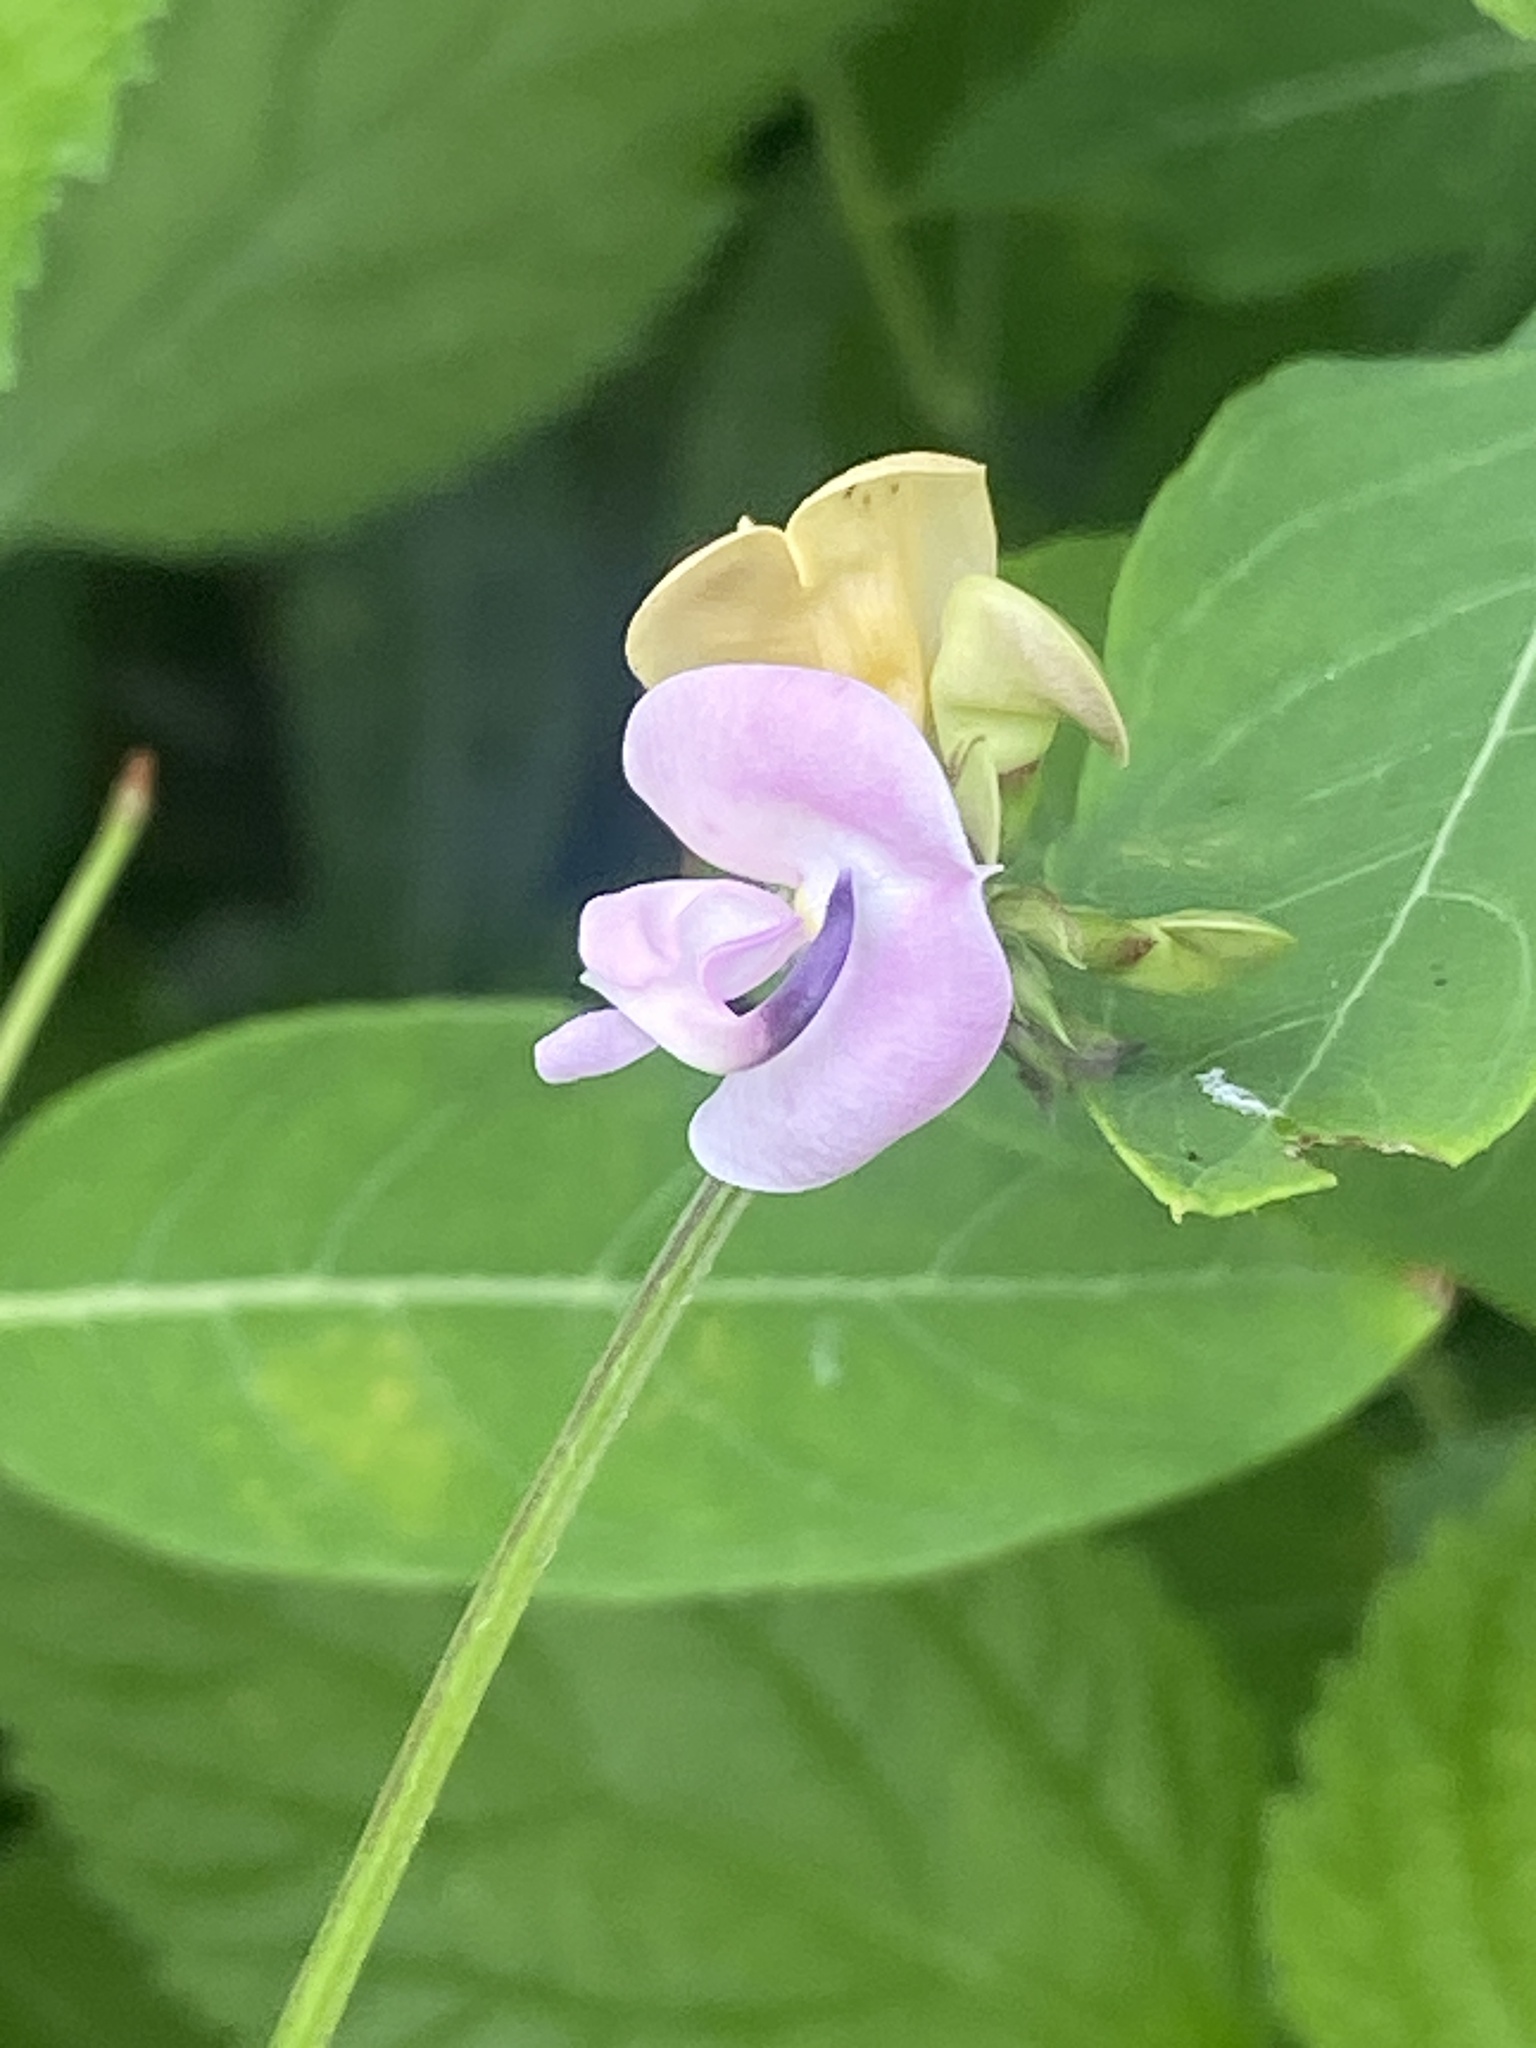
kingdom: Plantae
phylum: Tracheophyta
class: Magnoliopsida
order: Fabales
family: Fabaceae
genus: Strophostyles
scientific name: Strophostyles helvola
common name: Trailing wild bean
